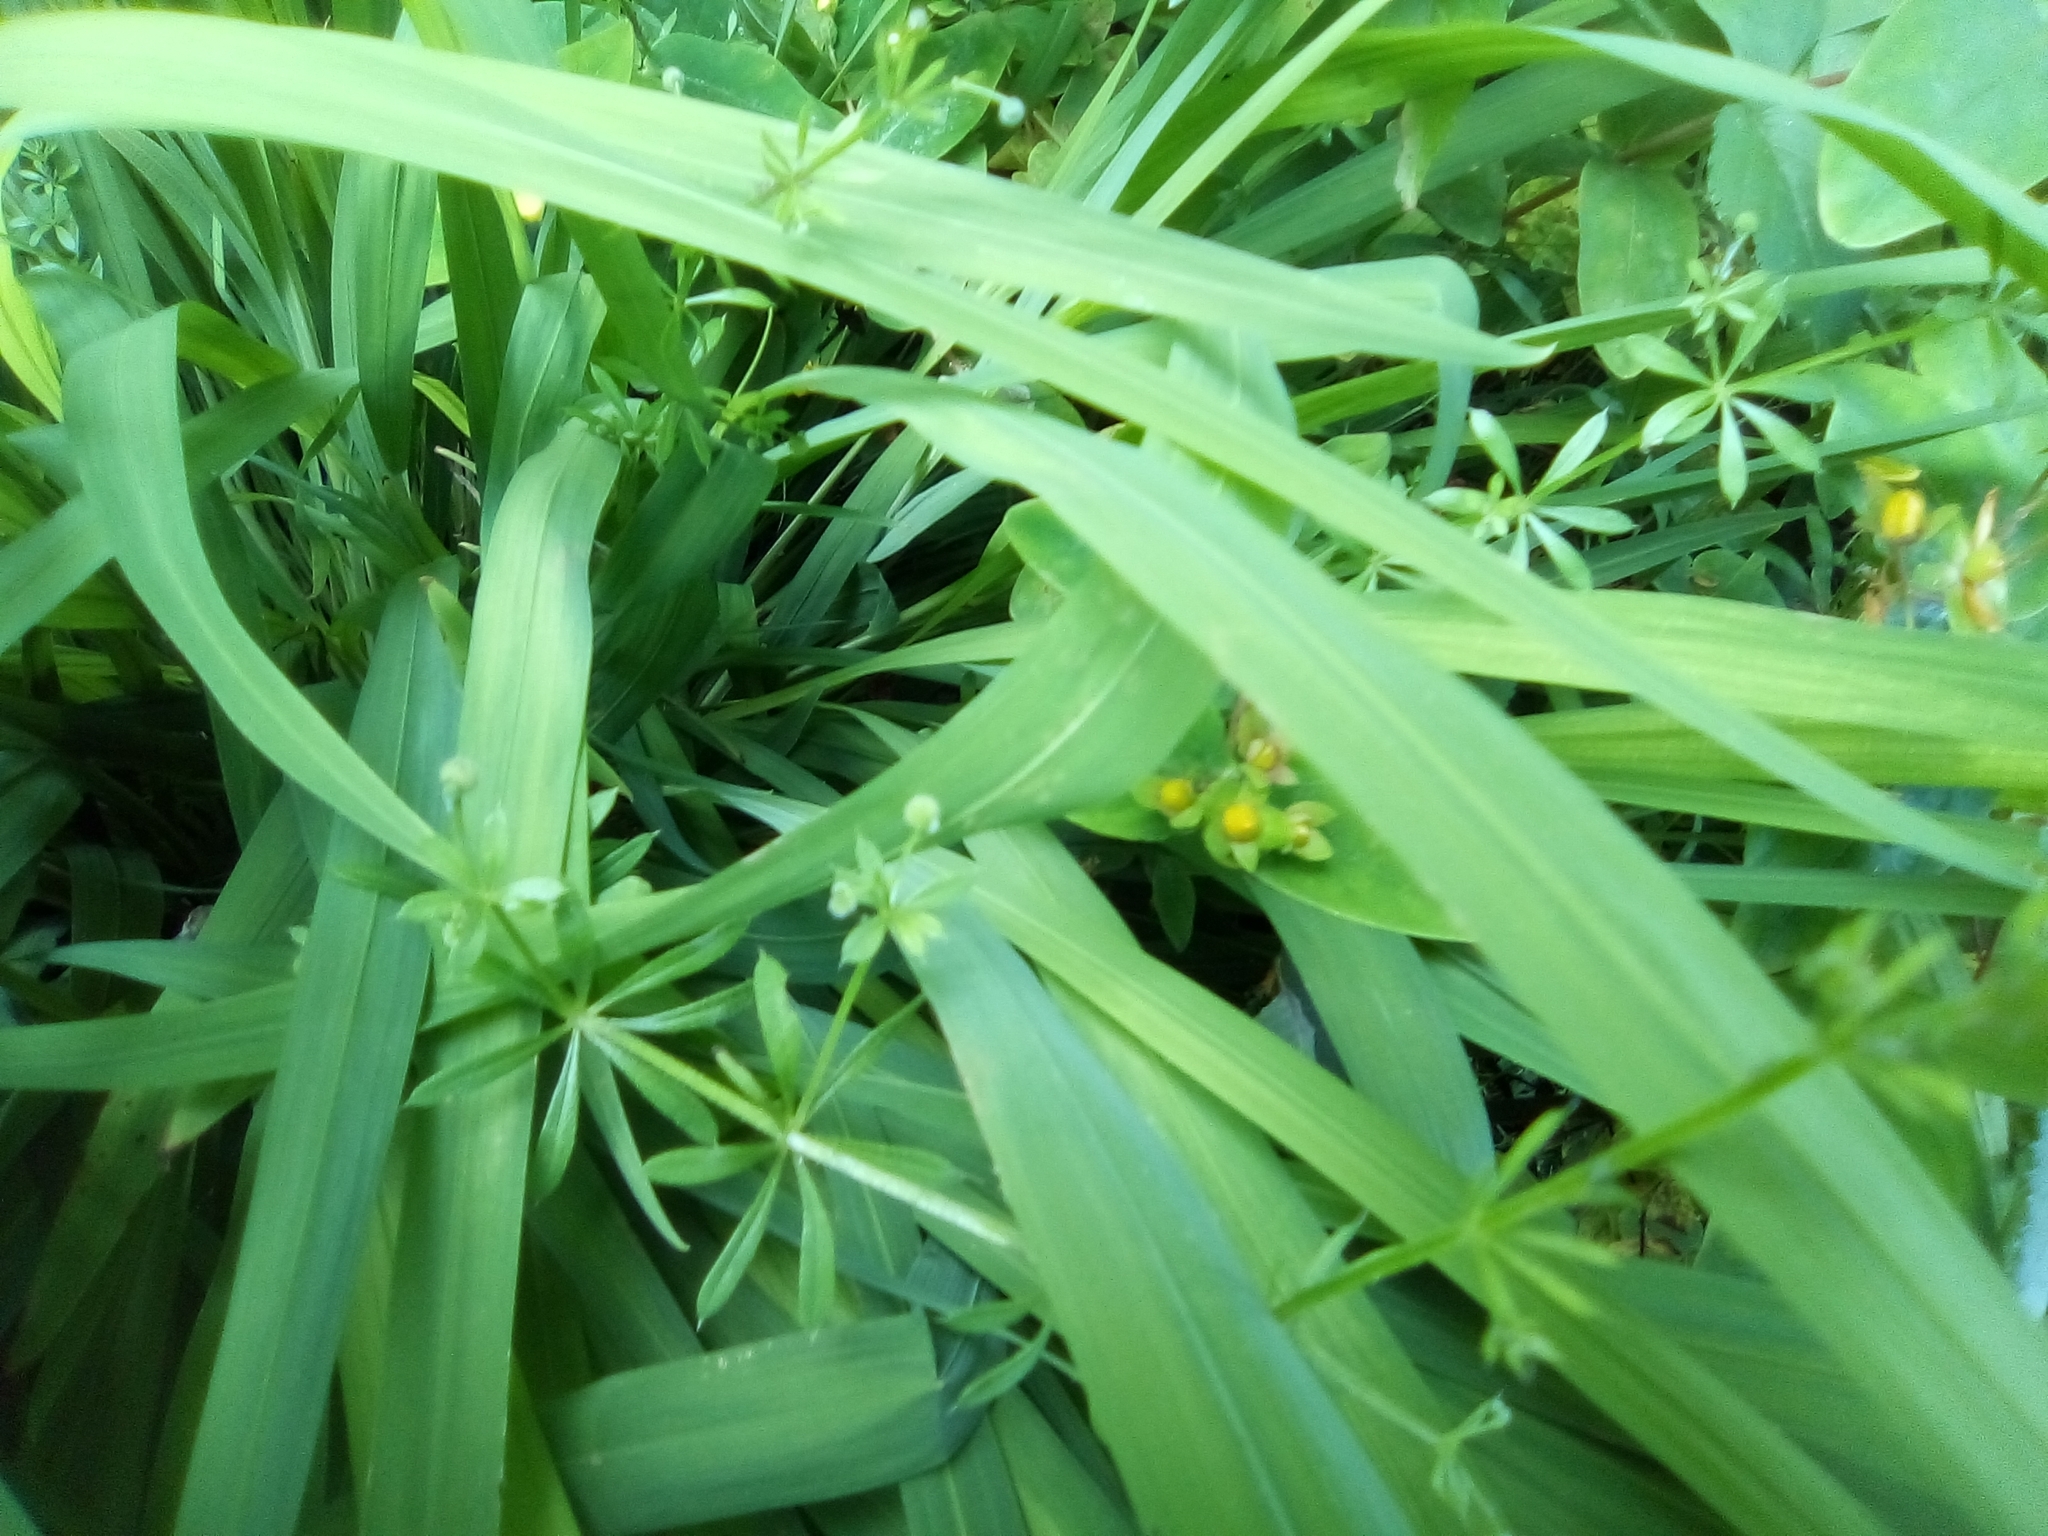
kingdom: Plantae
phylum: Tracheophyta
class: Magnoliopsida
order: Gentianales
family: Rubiaceae
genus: Galium
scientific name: Galium aparine
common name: Cleavers
